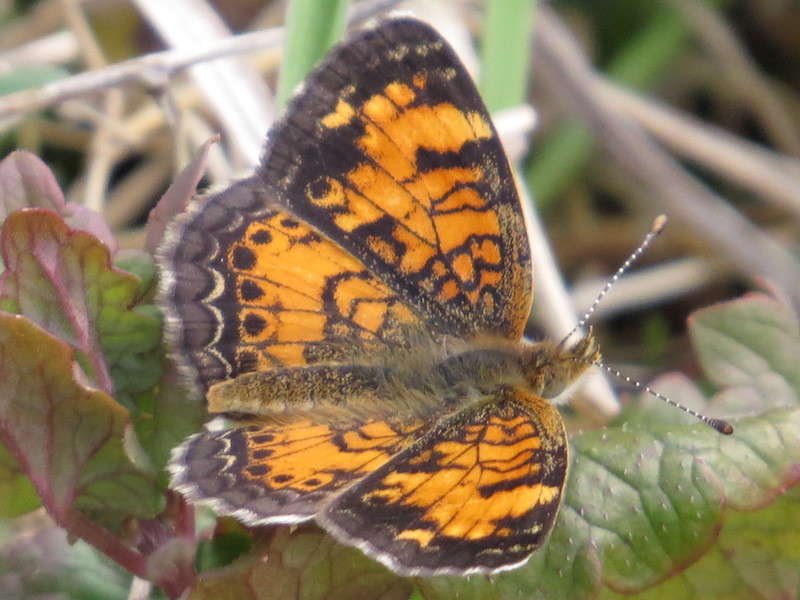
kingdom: Animalia
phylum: Arthropoda
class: Insecta
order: Lepidoptera
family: Nymphalidae
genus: Phyciodes
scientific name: Phyciodes tharos
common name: Pearl crescent
